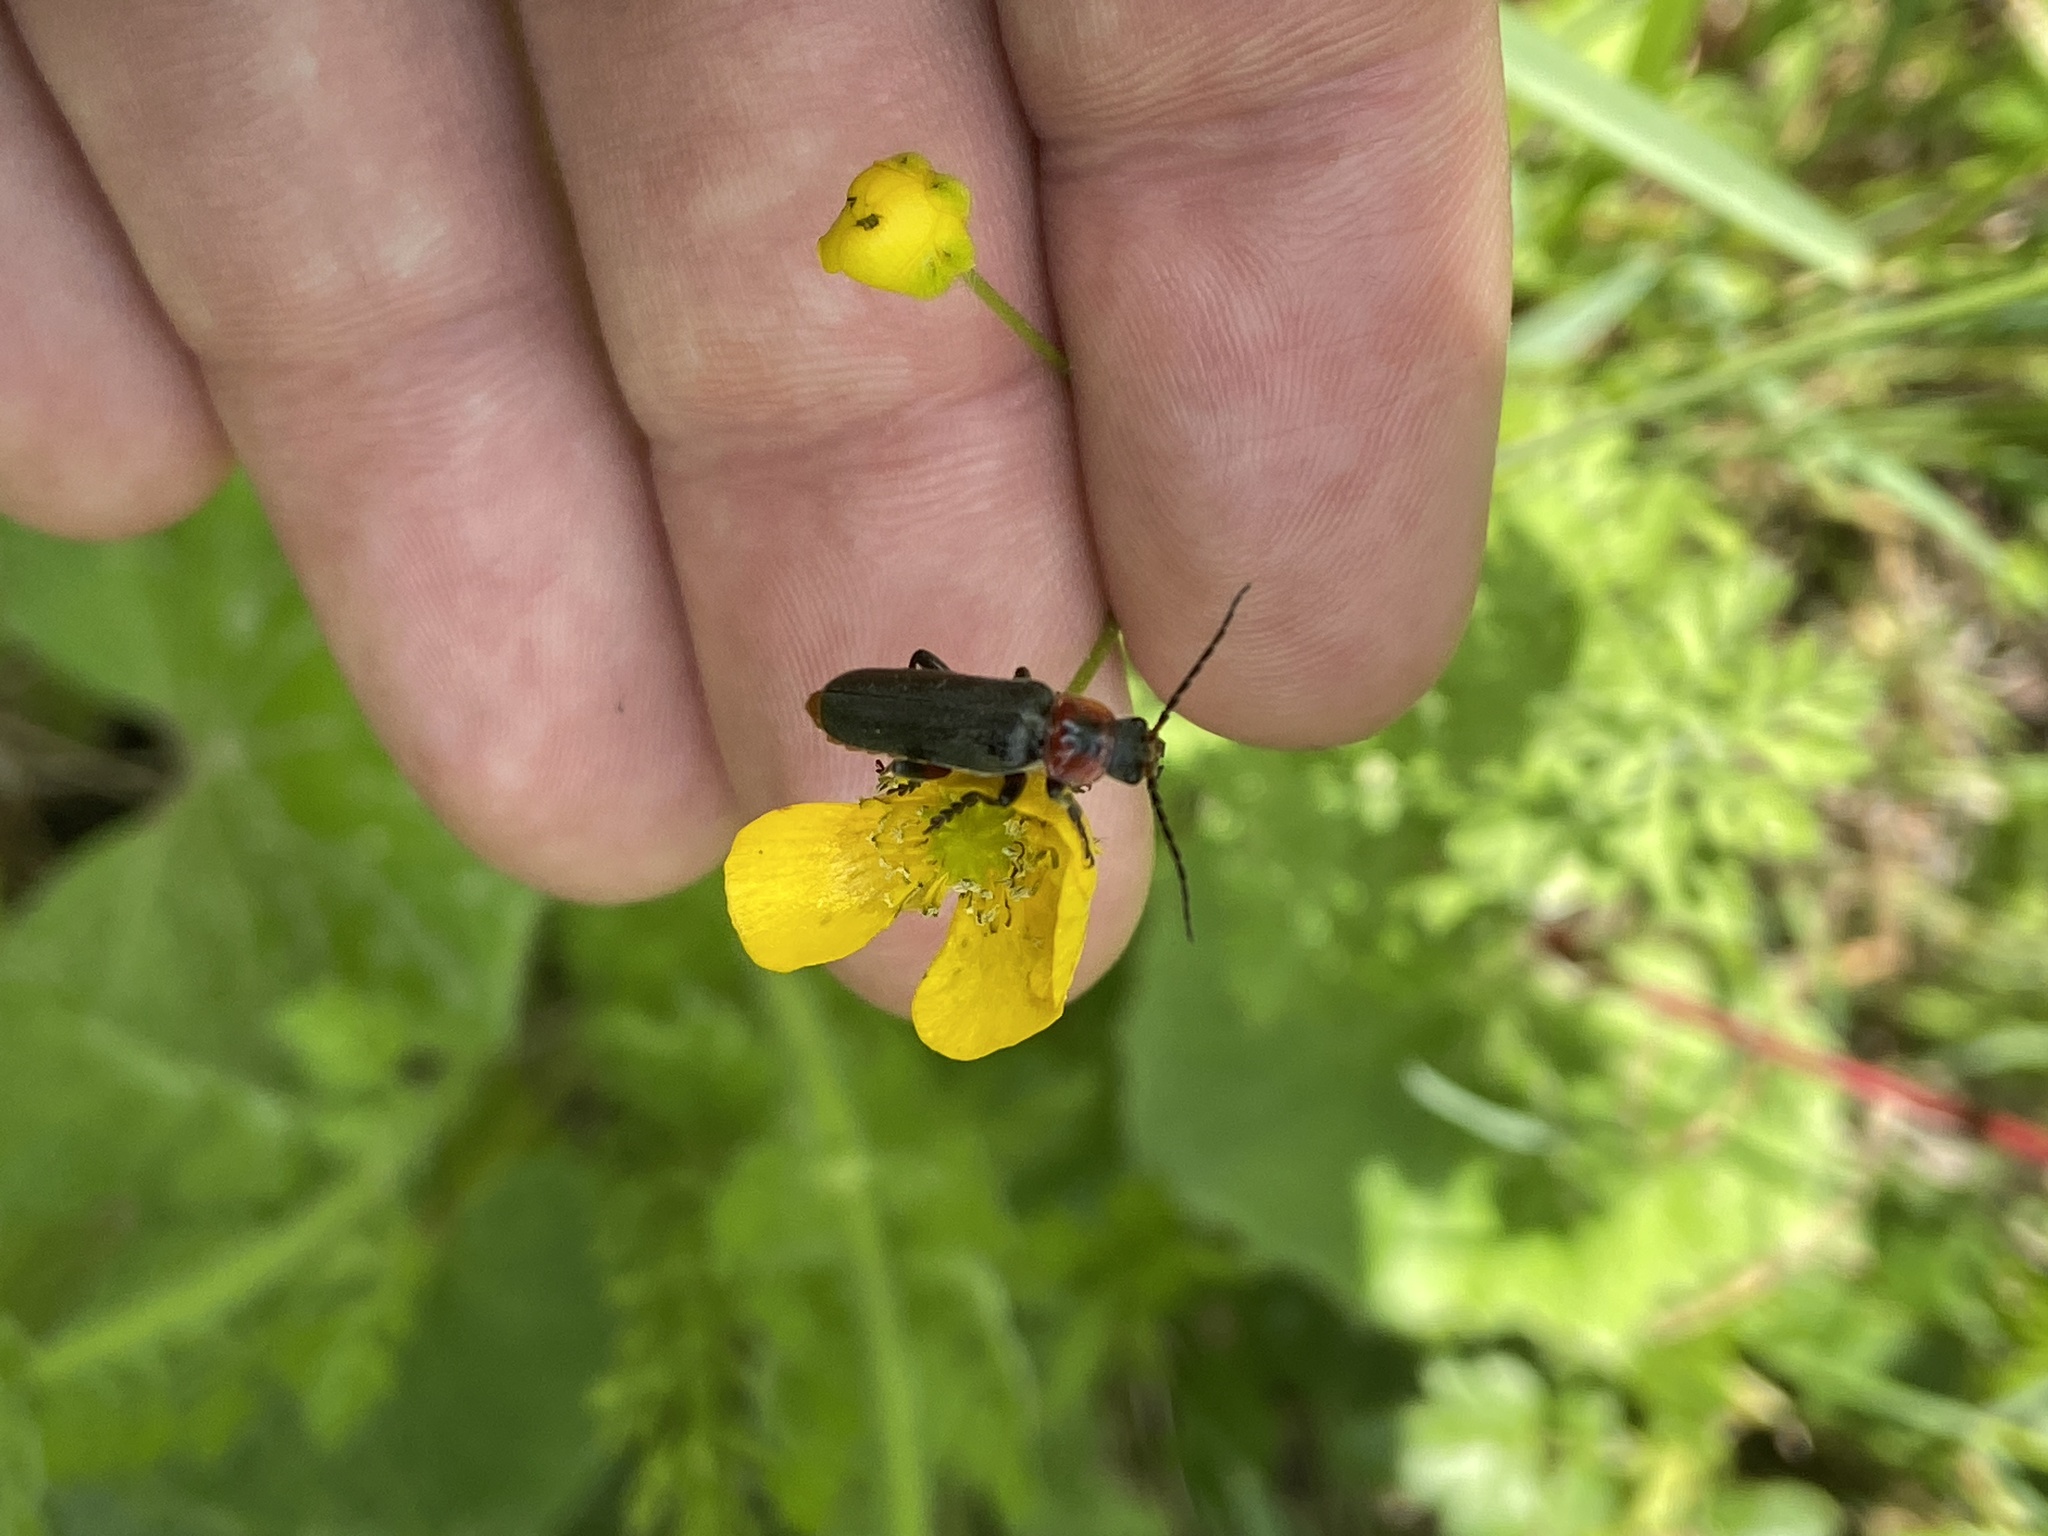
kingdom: Animalia
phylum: Arthropoda
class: Insecta
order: Coleoptera
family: Cantharidae
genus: Cantharis
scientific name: Cantharis rustica
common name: Soldier beetle
